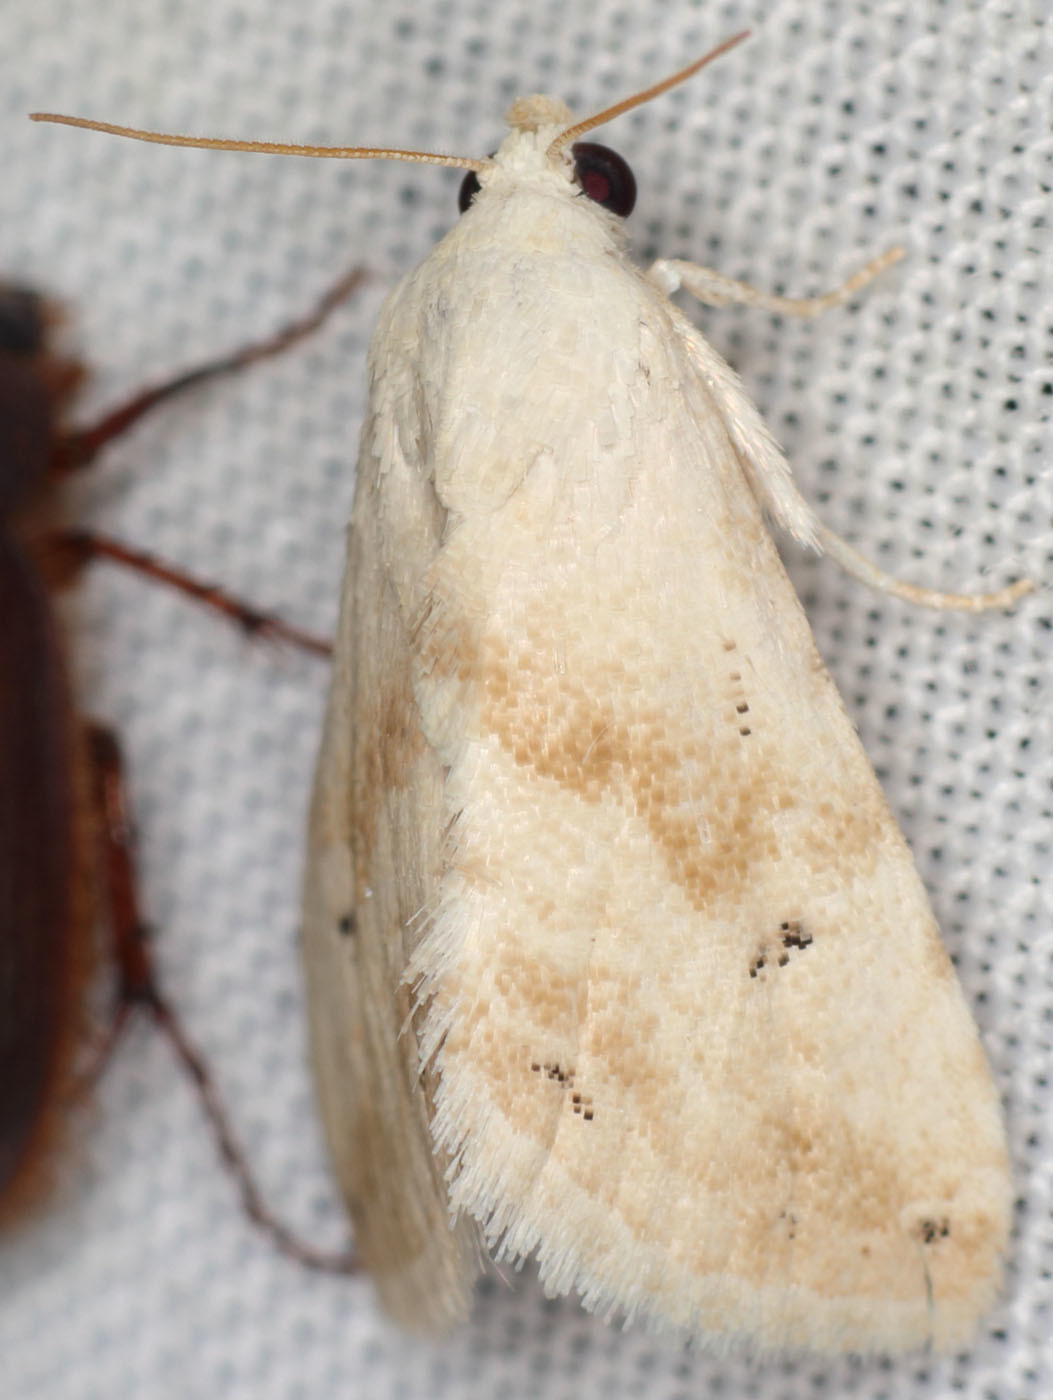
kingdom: Animalia
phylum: Arthropoda
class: Insecta
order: Lepidoptera
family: Noctuidae
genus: Eublemma
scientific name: Eublemma minima
